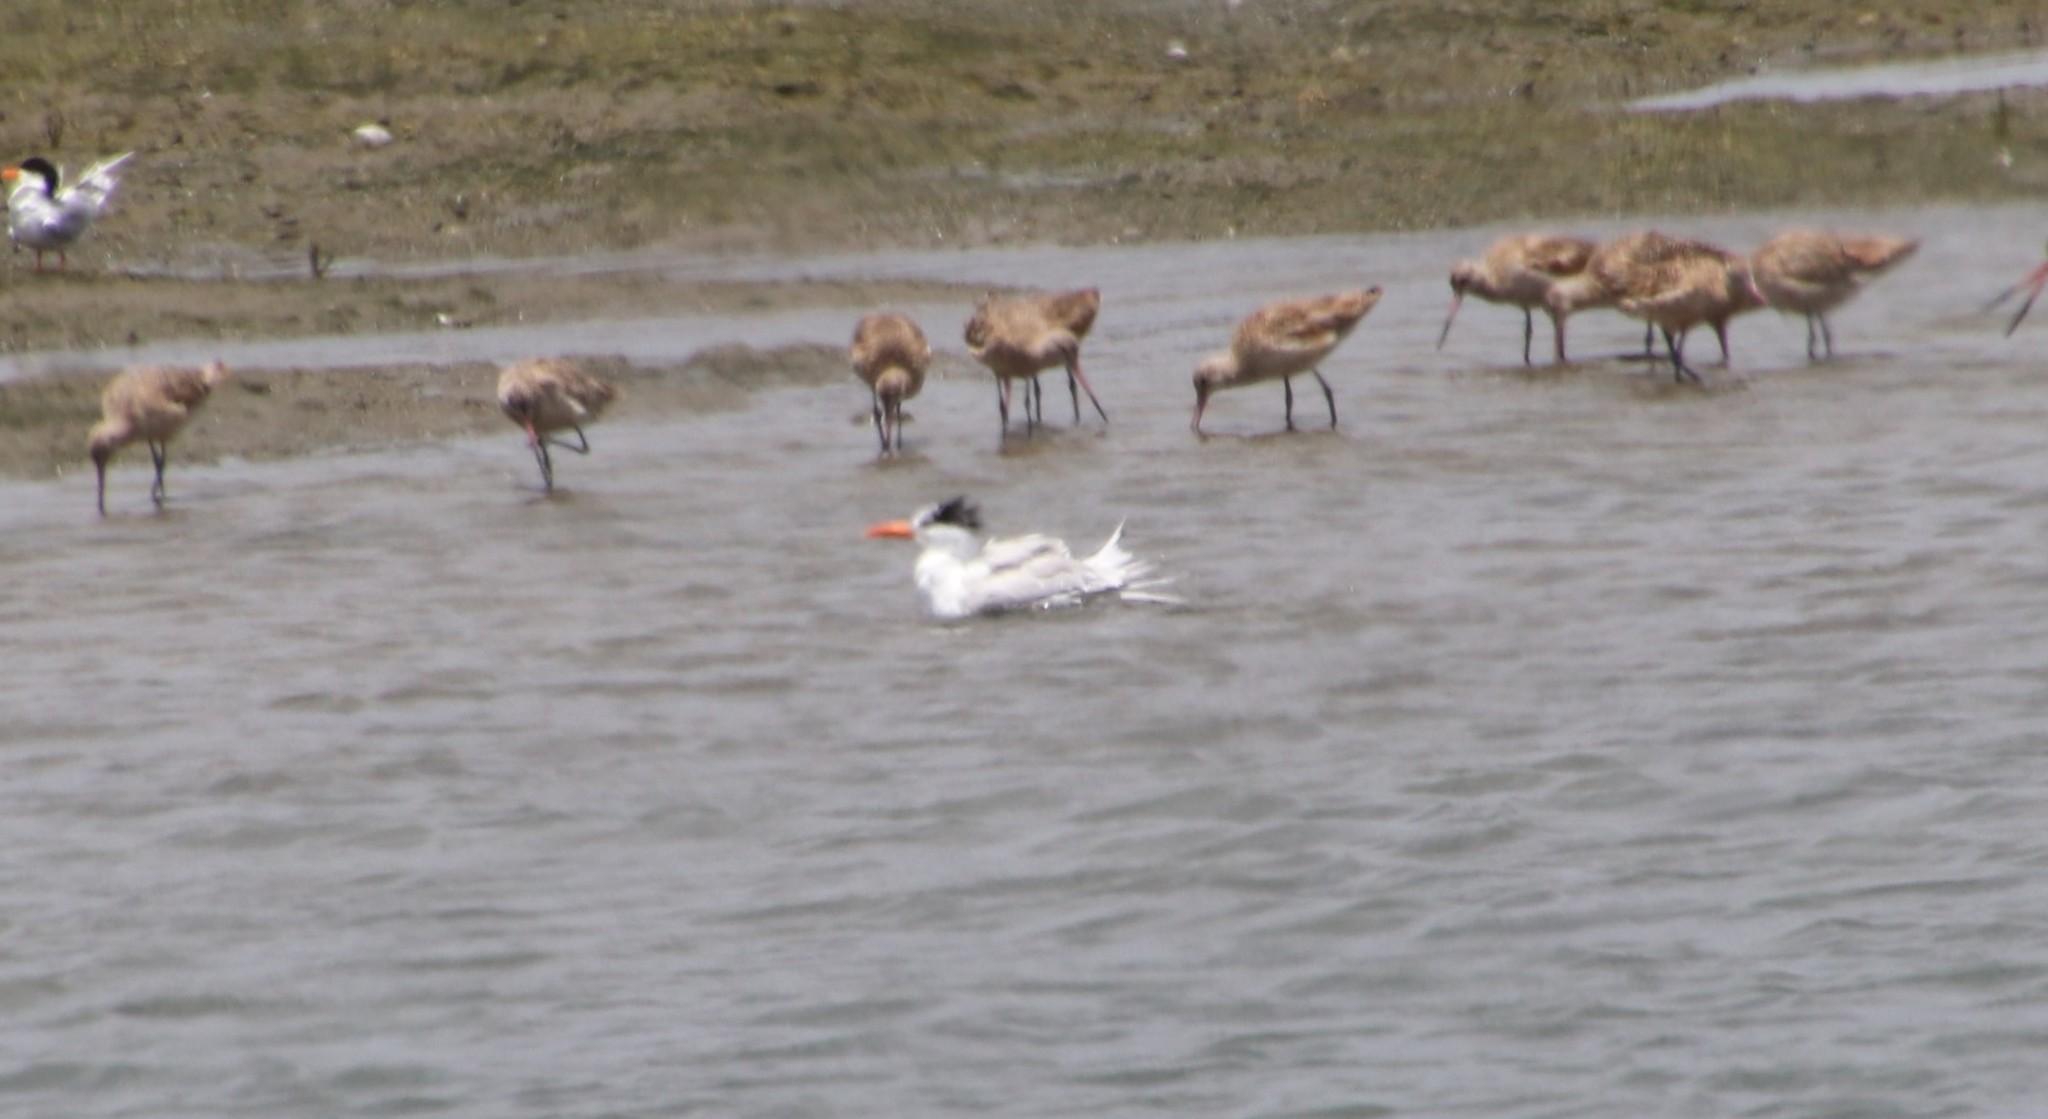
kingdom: Animalia
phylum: Chordata
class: Aves
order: Charadriiformes
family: Laridae
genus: Thalasseus
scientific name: Thalasseus maximus
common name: Royal tern
